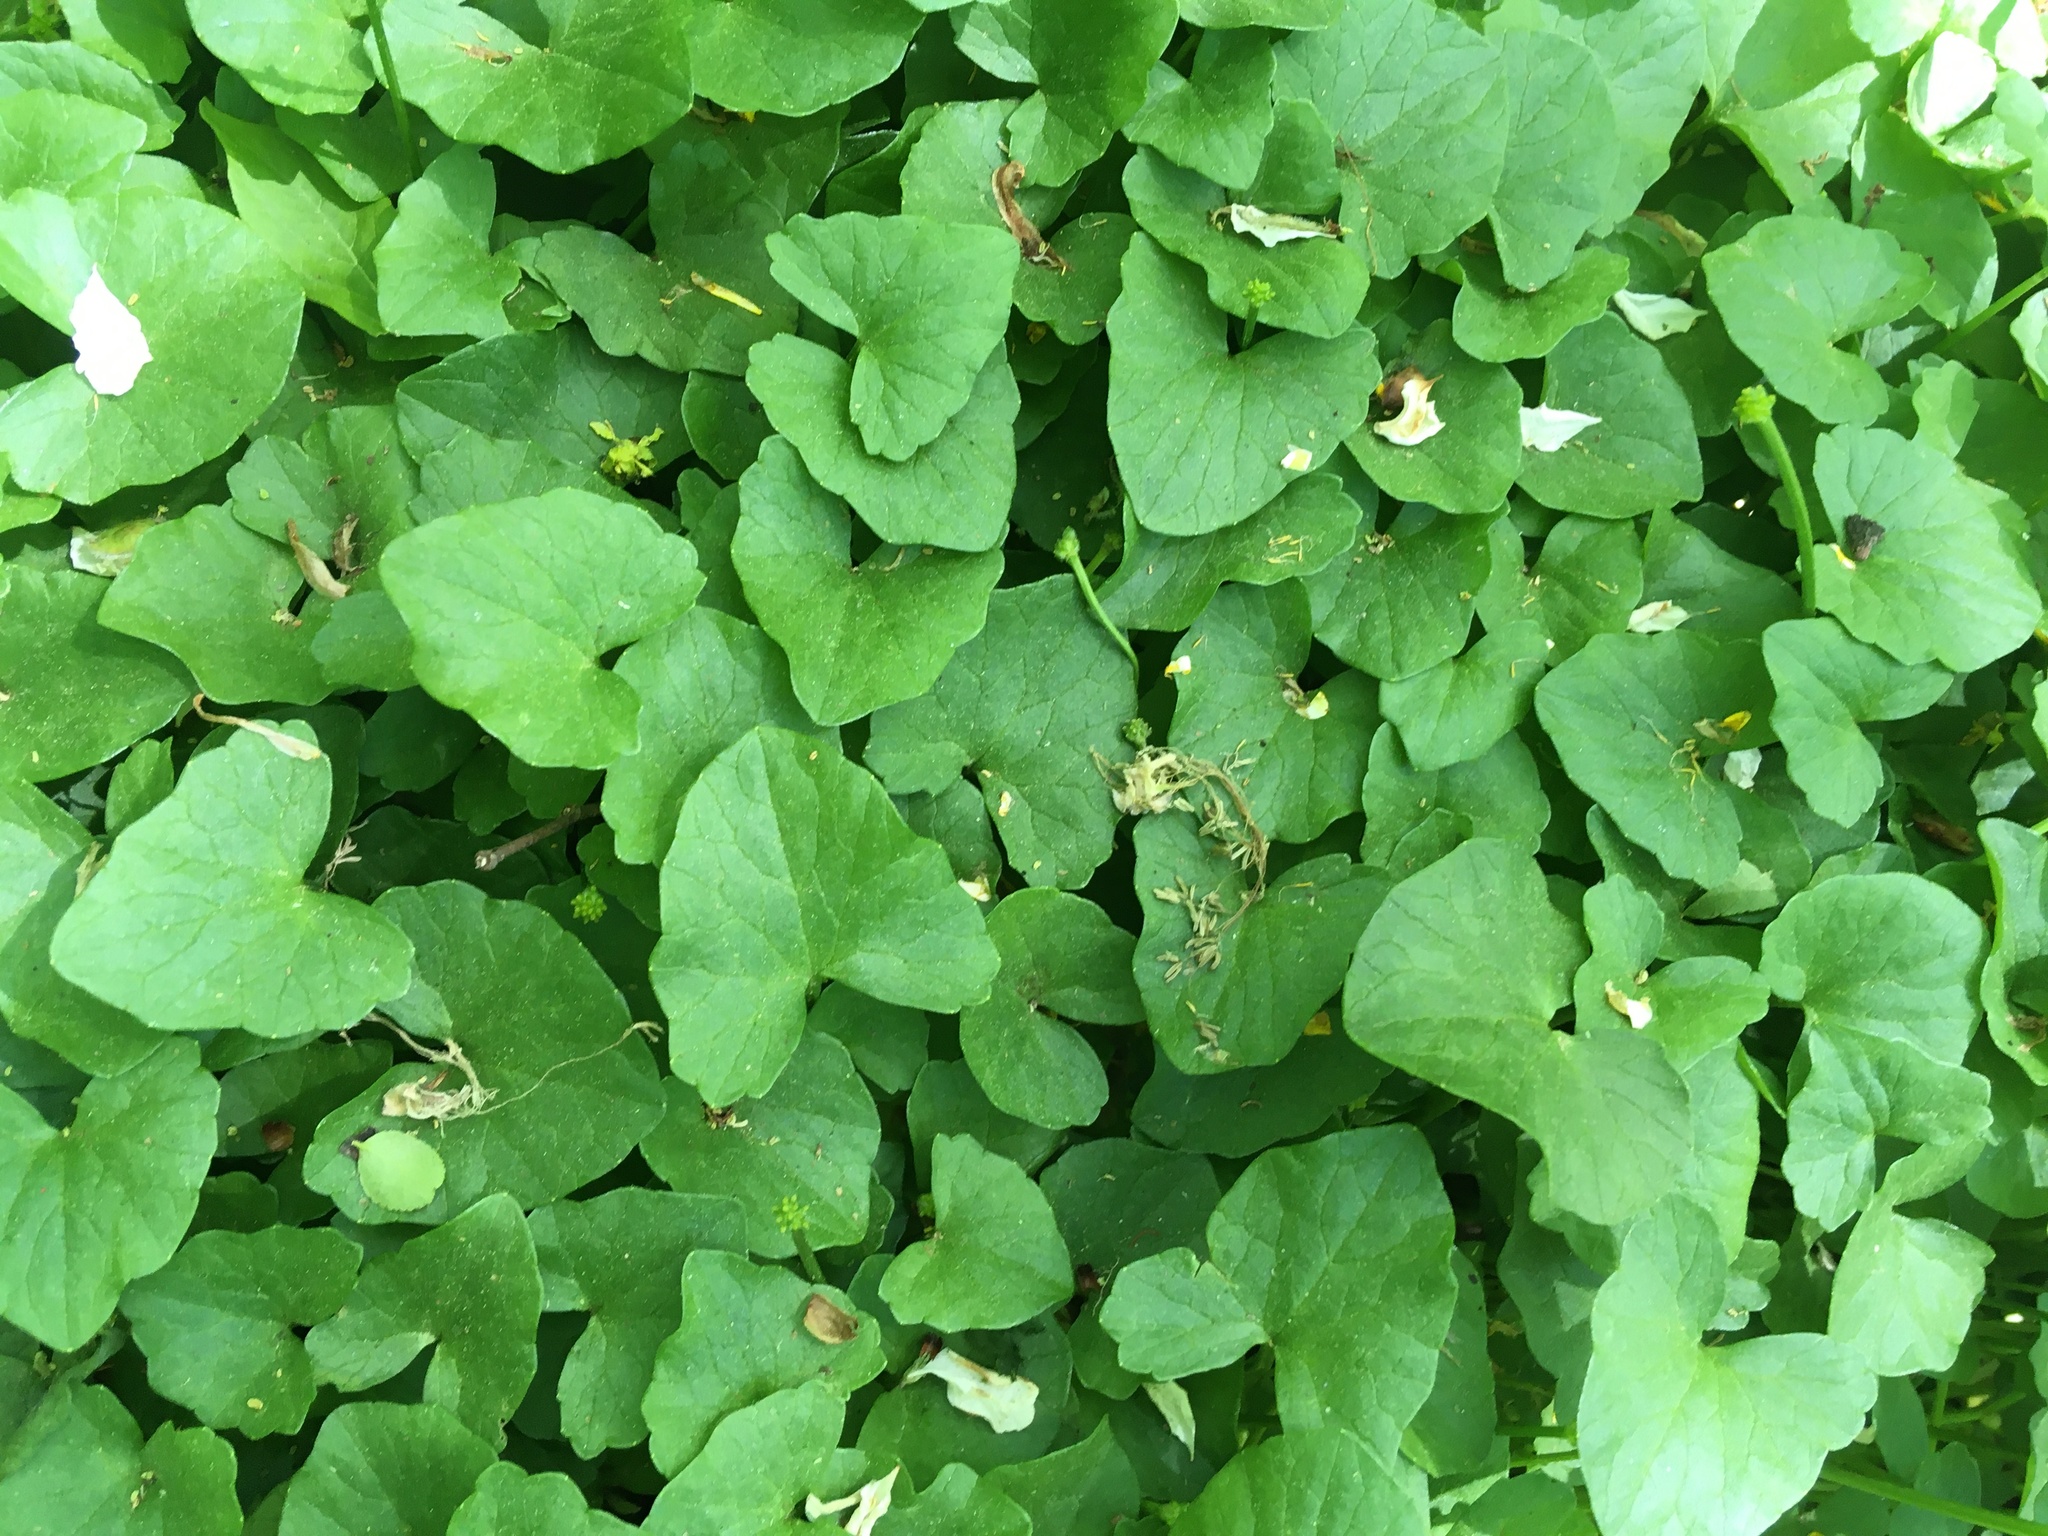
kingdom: Plantae
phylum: Tracheophyta
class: Magnoliopsida
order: Ranunculales
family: Ranunculaceae
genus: Ficaria
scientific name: Ficaria verna
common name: Lesser celandine
